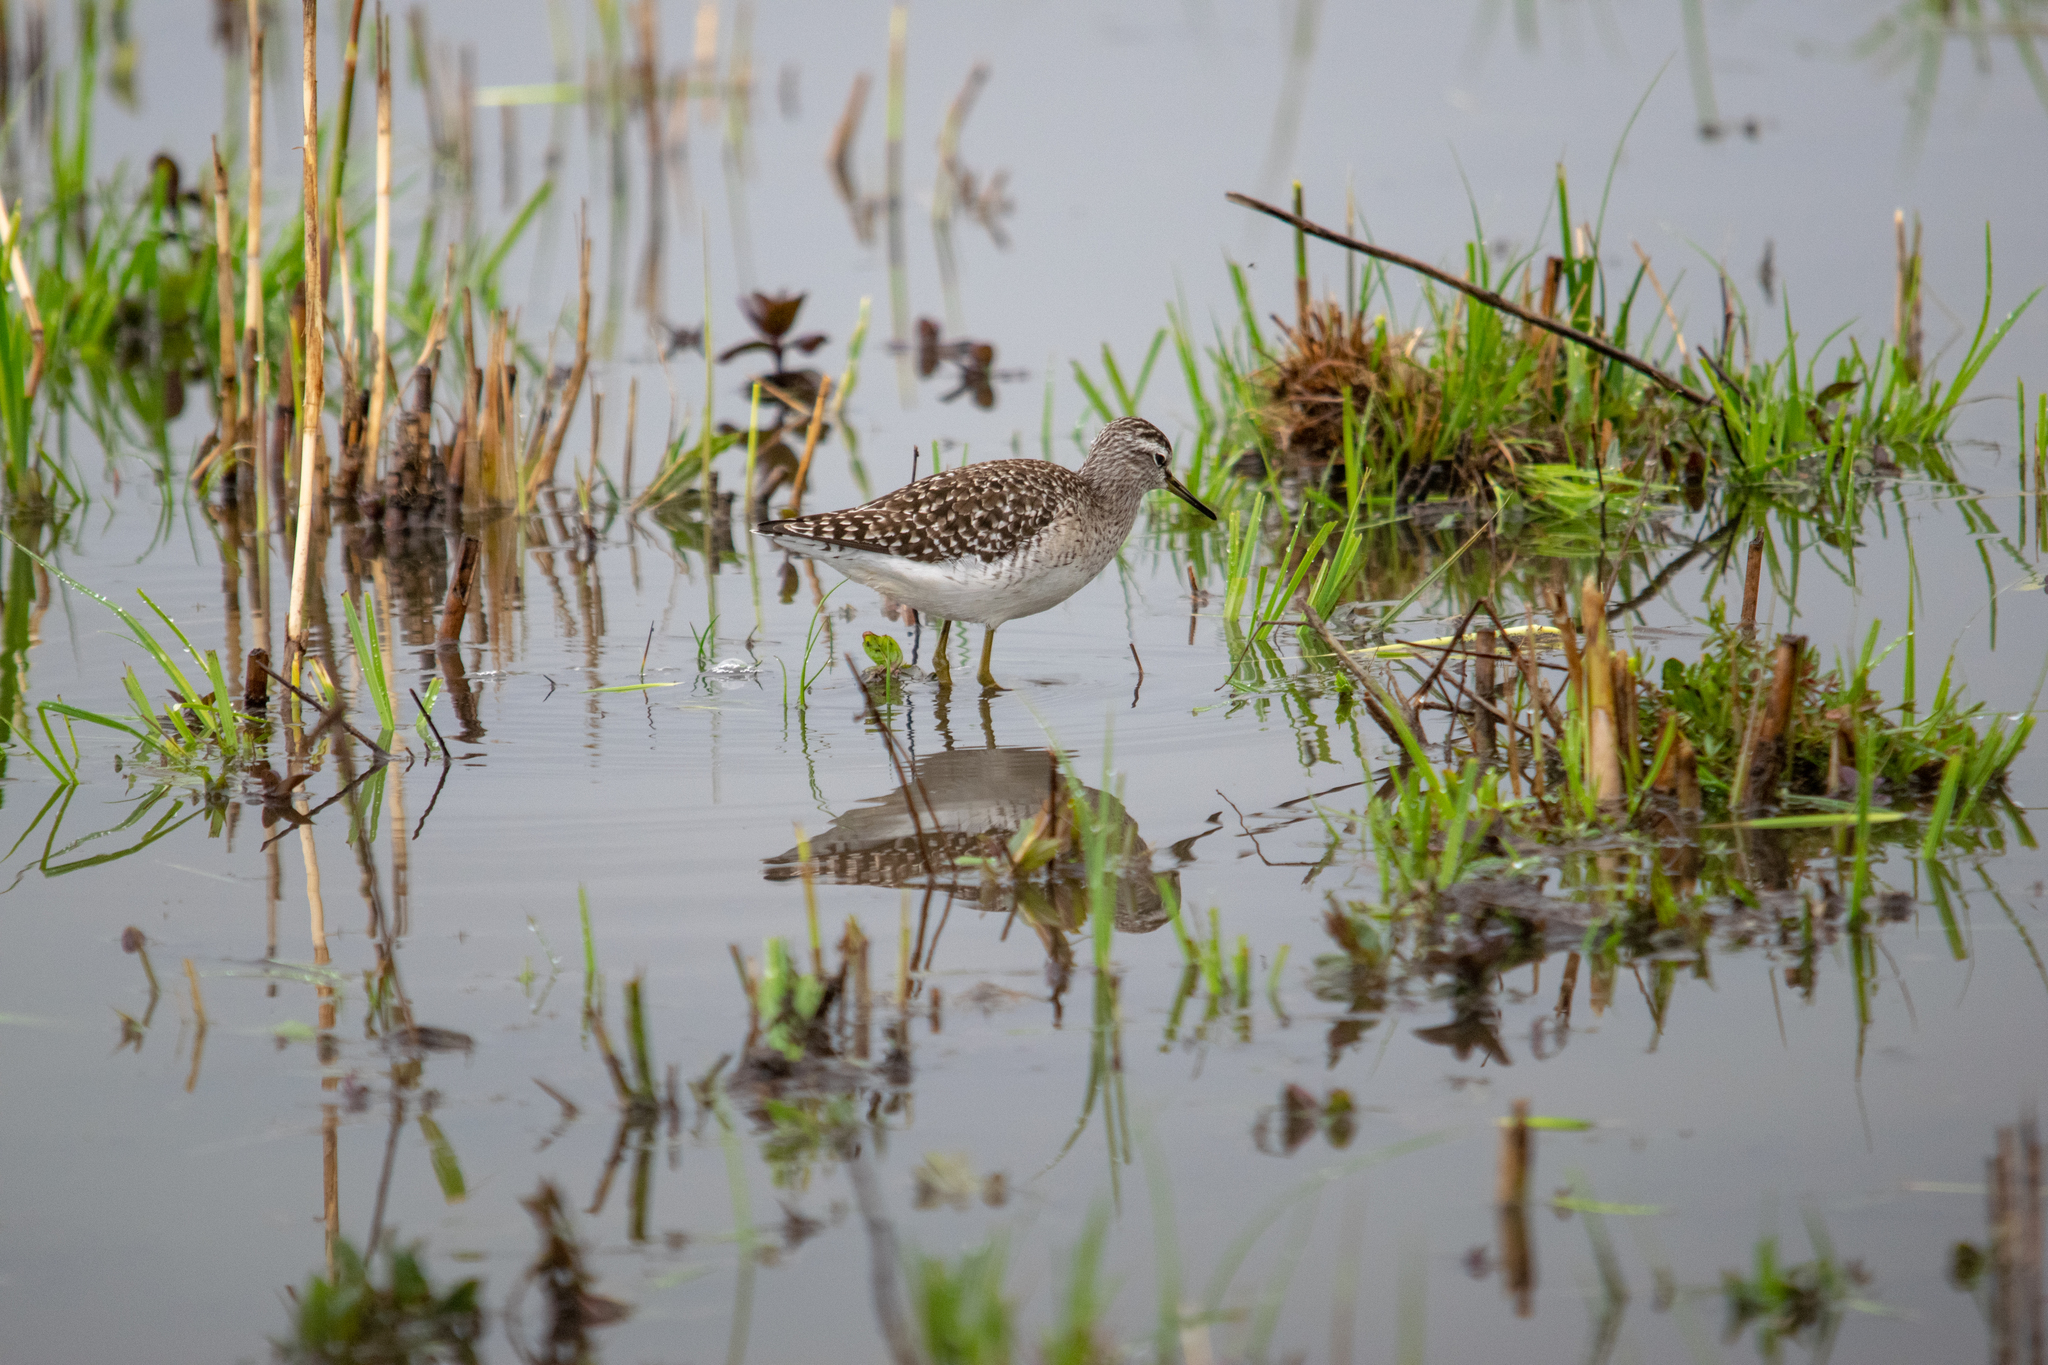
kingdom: Animalia
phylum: Chordata
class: Aves
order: Charadriiformes
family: Scolopacidae
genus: Tringa
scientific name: Tringa glareola
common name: Wood sandpiper
